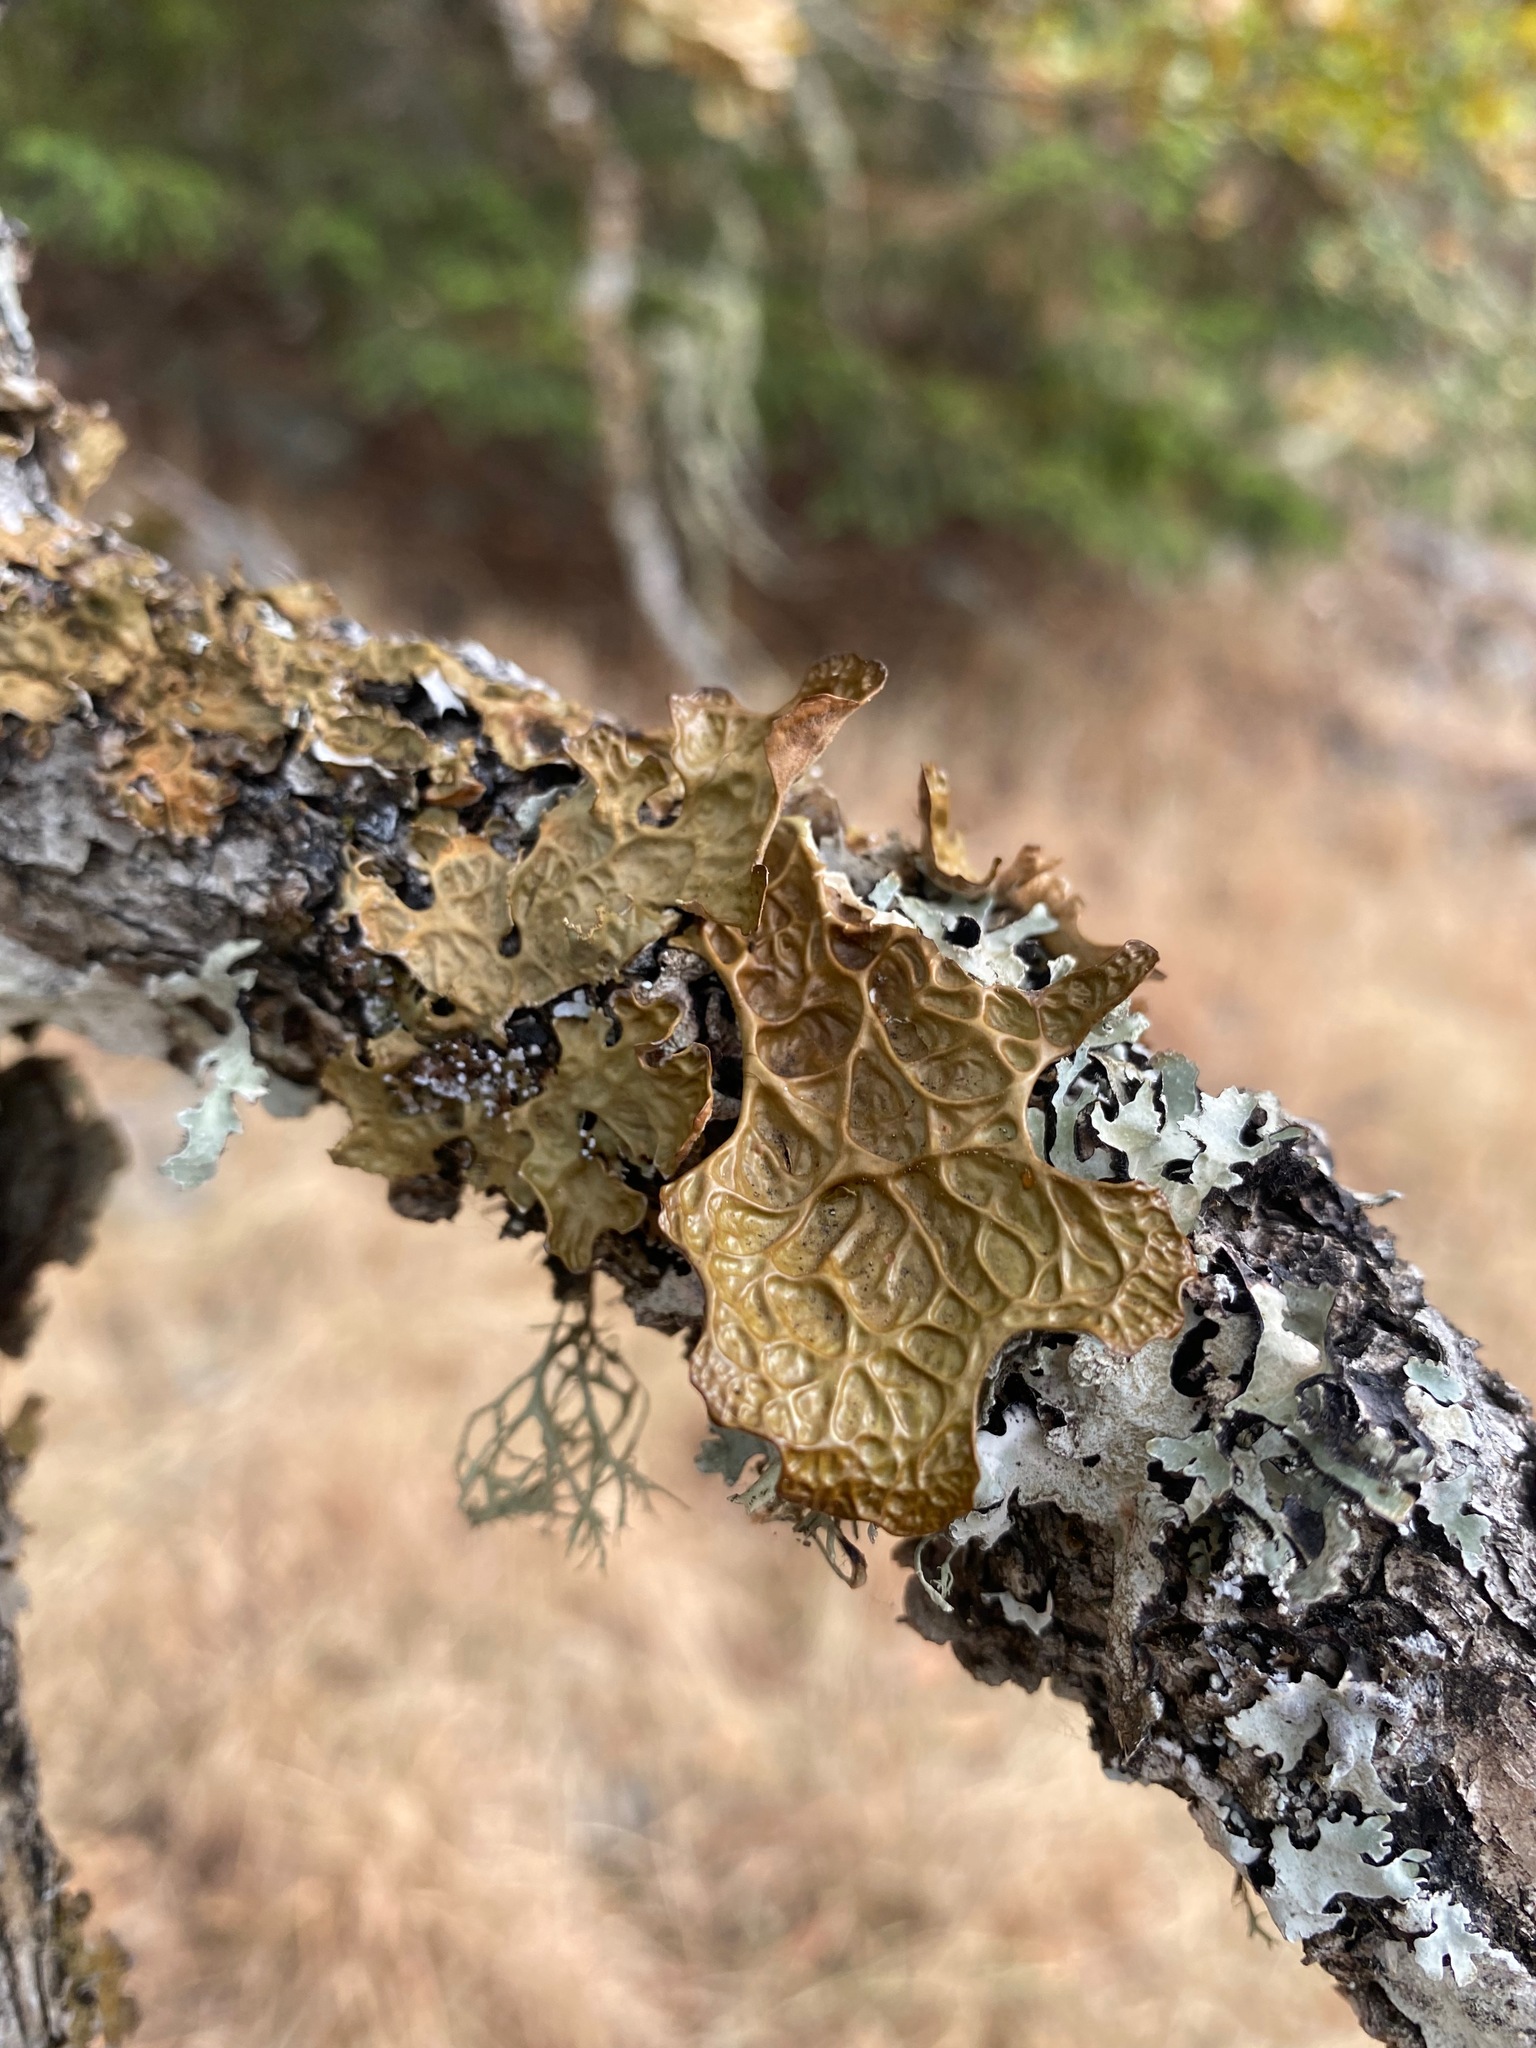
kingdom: Fungi
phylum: Ascomycota
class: Lecanoromycetes
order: Peltigerales
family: Lobariaceae
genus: Lobaria
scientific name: Lobaria pulmonaria
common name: Lungwort
